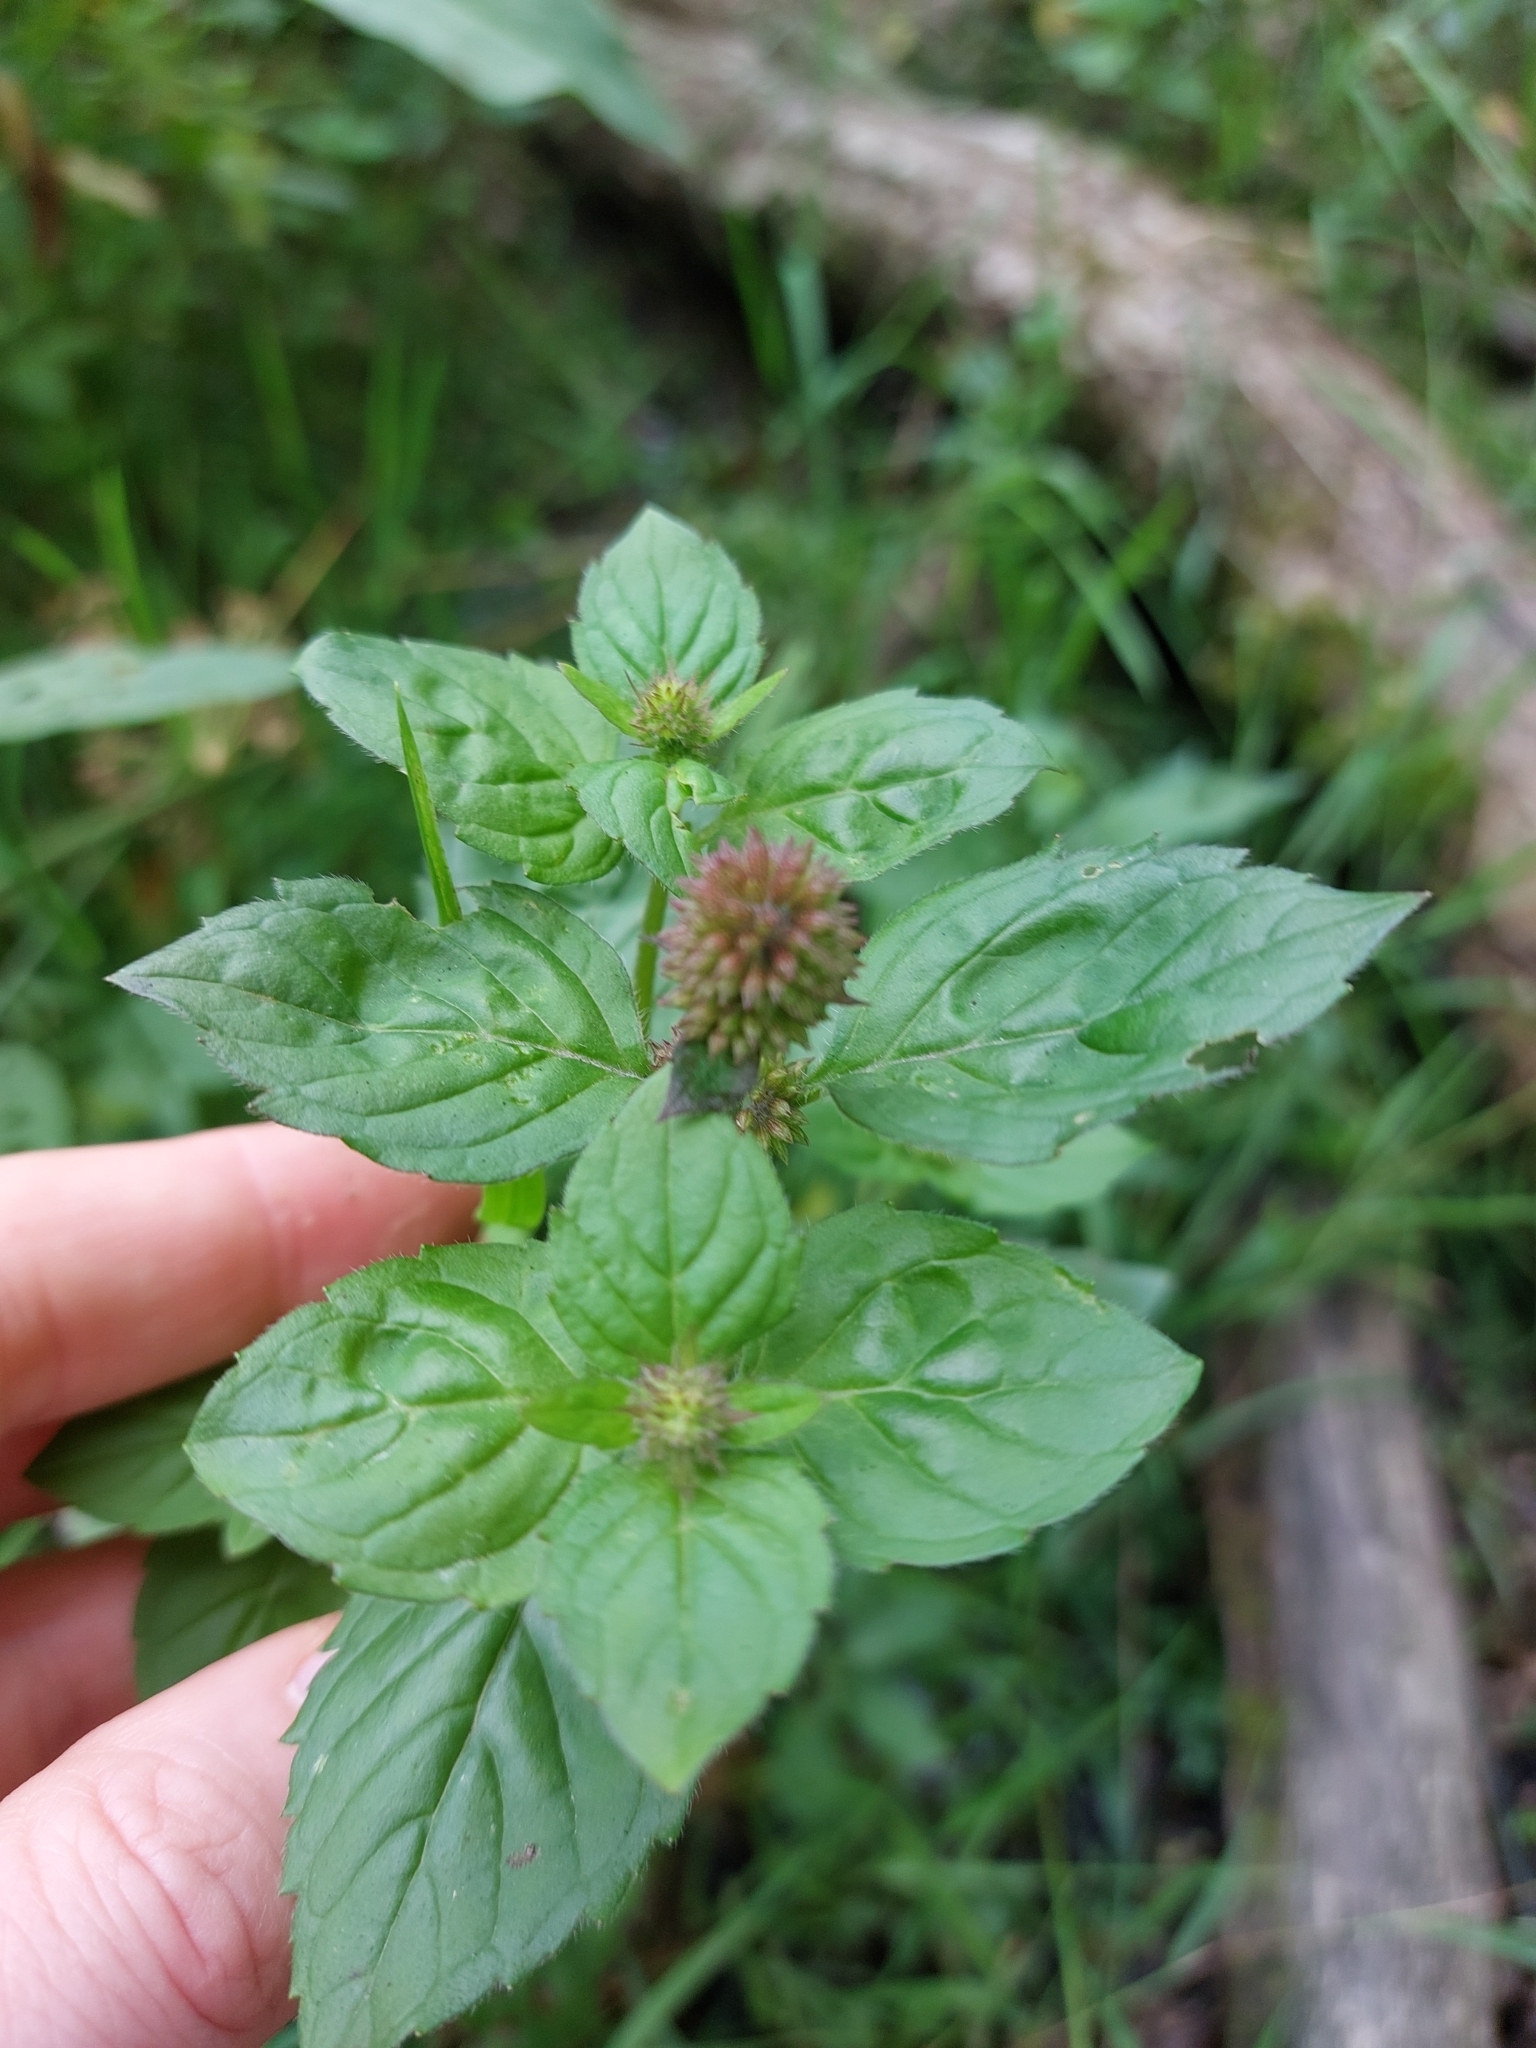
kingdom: Plantae
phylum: Tracheophyta
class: Magnoliopsida
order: Lamiales
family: Lamiaceae
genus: Mentha
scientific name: Mentha aquatica
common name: Water mint
